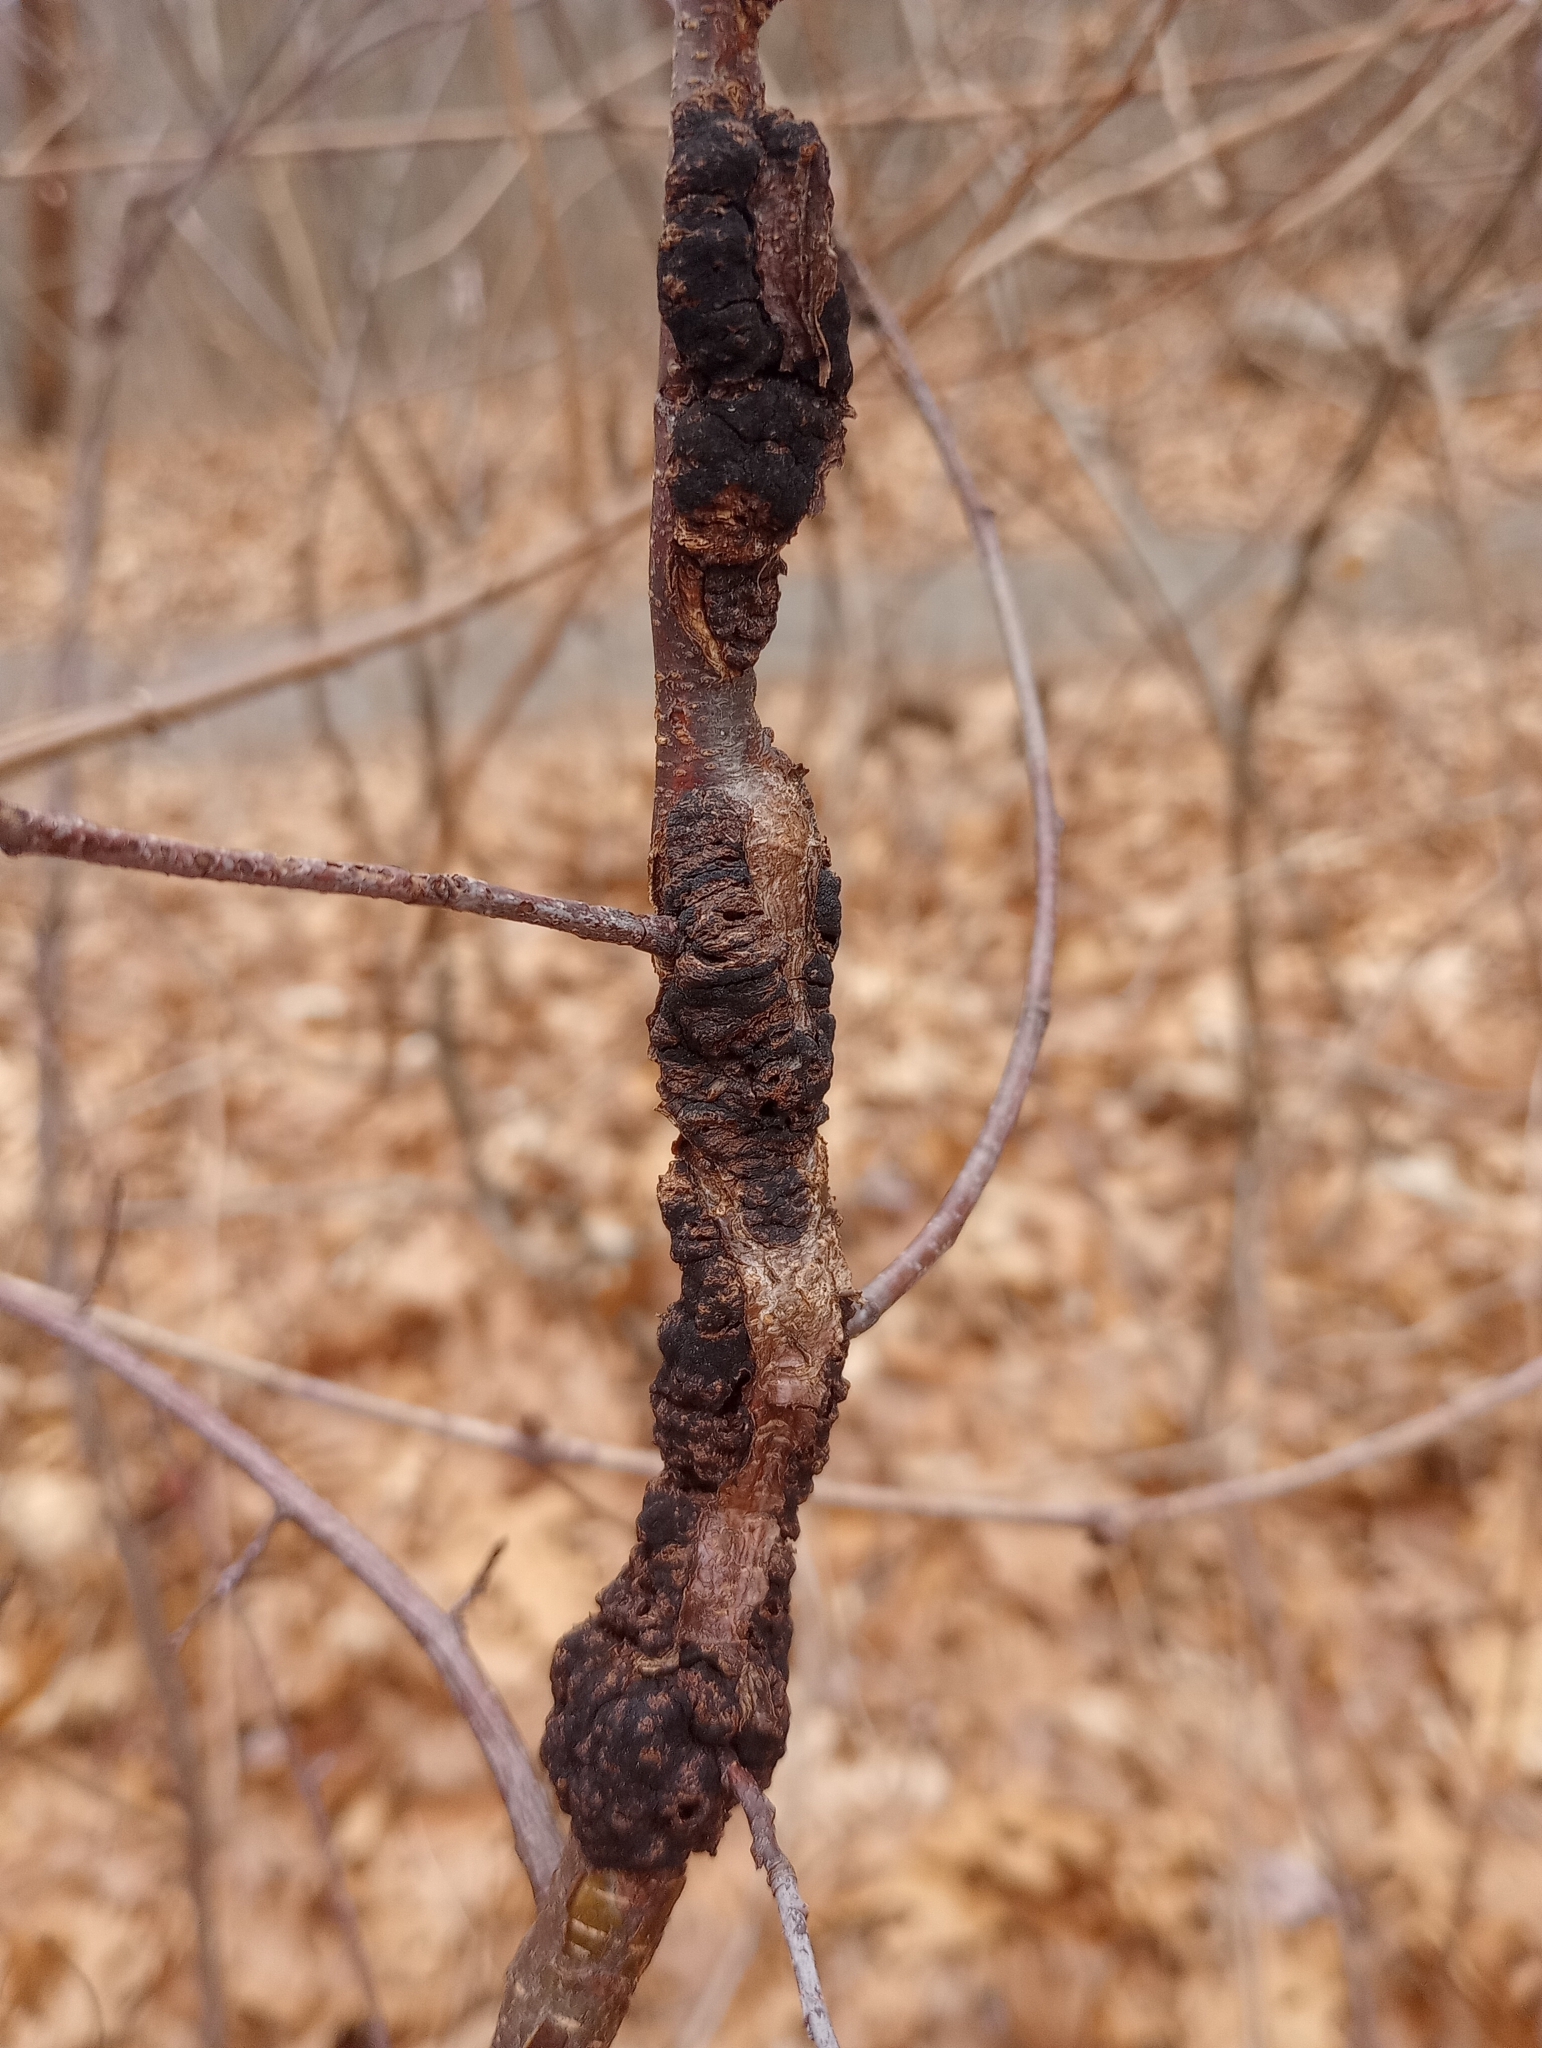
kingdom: Fungi
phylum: Ascomycota
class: Dothideomycetes
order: Venturiales
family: Venturiaceae
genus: Apiosporina
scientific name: Apiosporina morbosa
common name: Black knot
